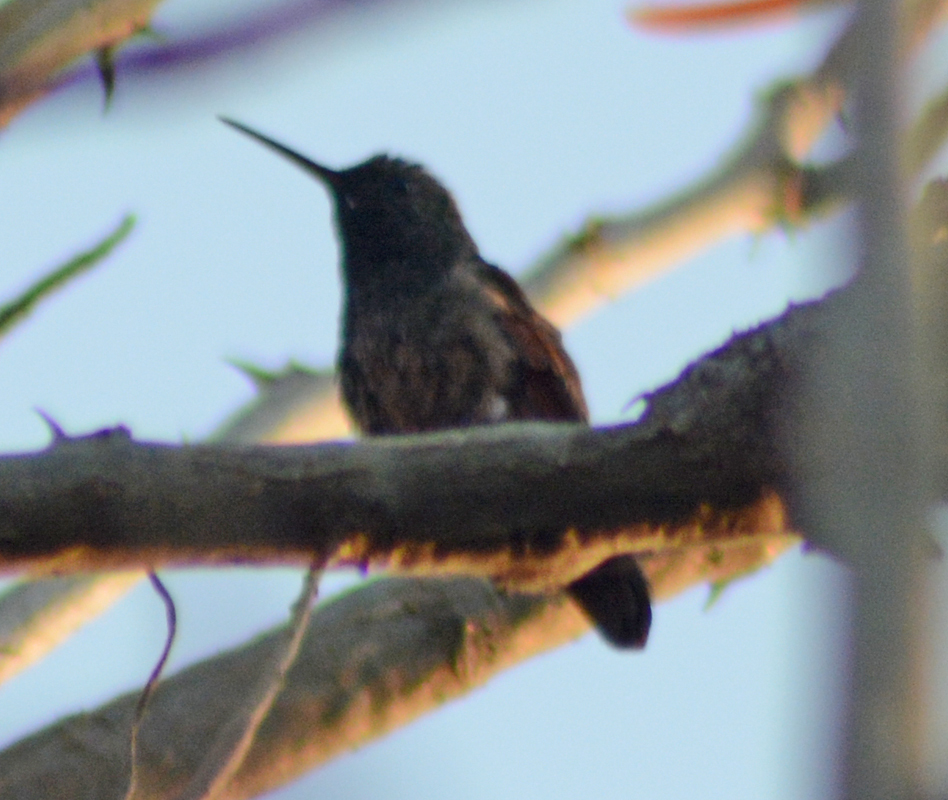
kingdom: Animalia
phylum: Chordata
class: Aves
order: Apodiformes
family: Trochilidae
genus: Saucerottia
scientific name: Saucerottia beryllina
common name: Berylline hummingbird
